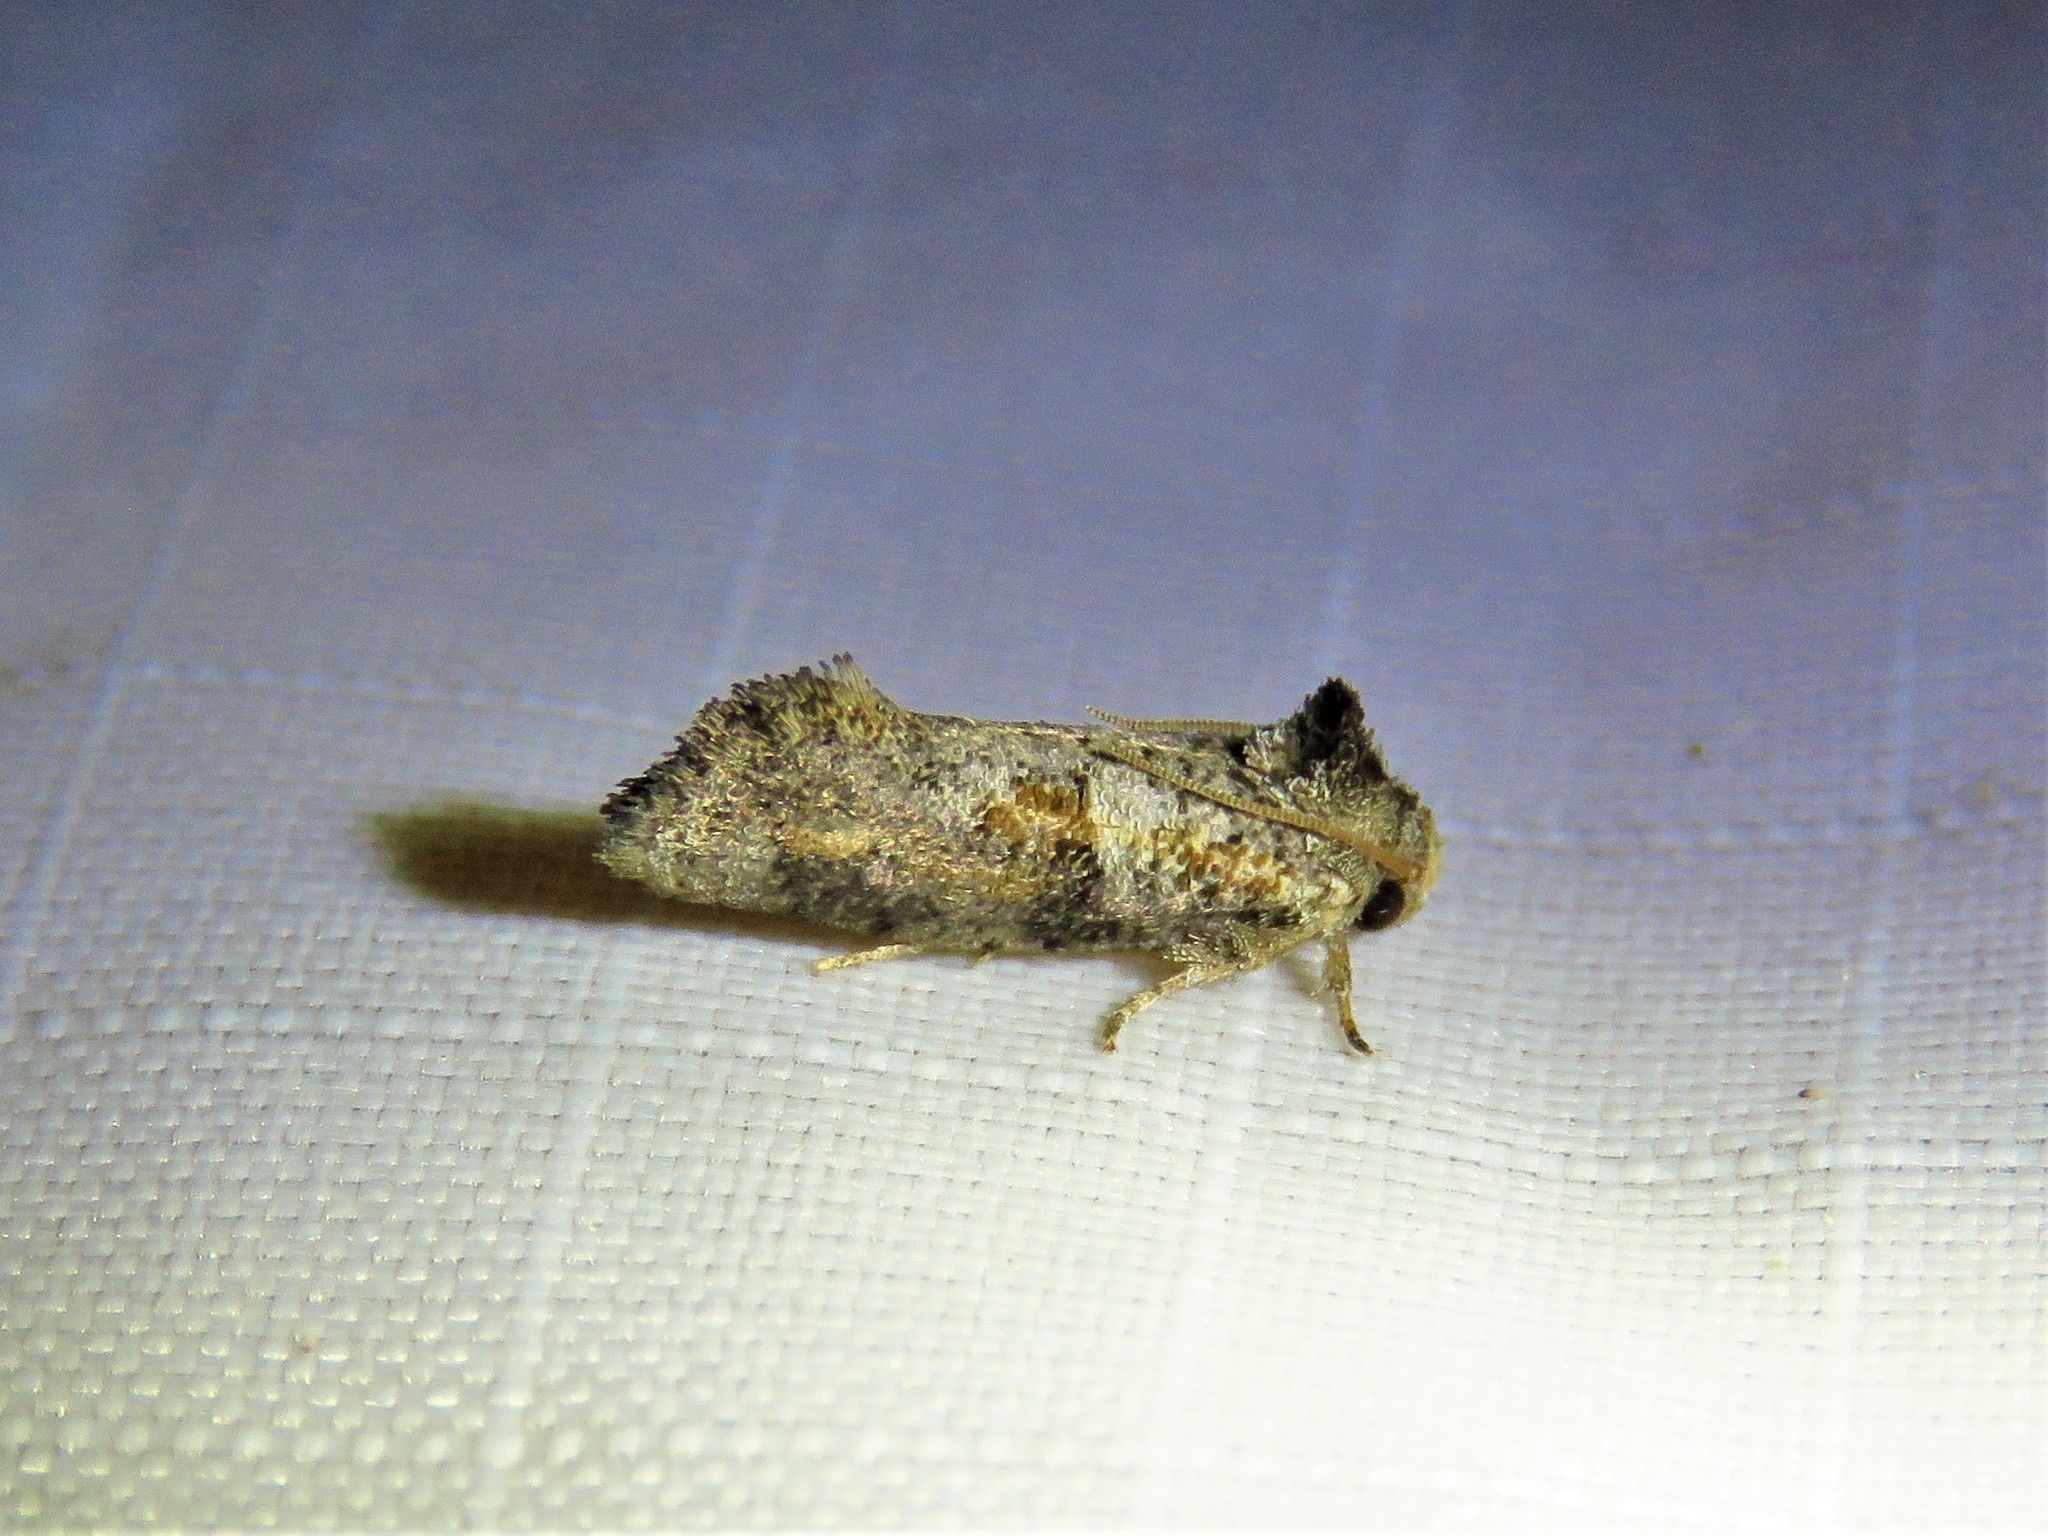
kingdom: Animalia
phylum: Arthropoda
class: Insecta
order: Lepidoptera
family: Tineidae
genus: Acrolophus
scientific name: Acrolophus piger
